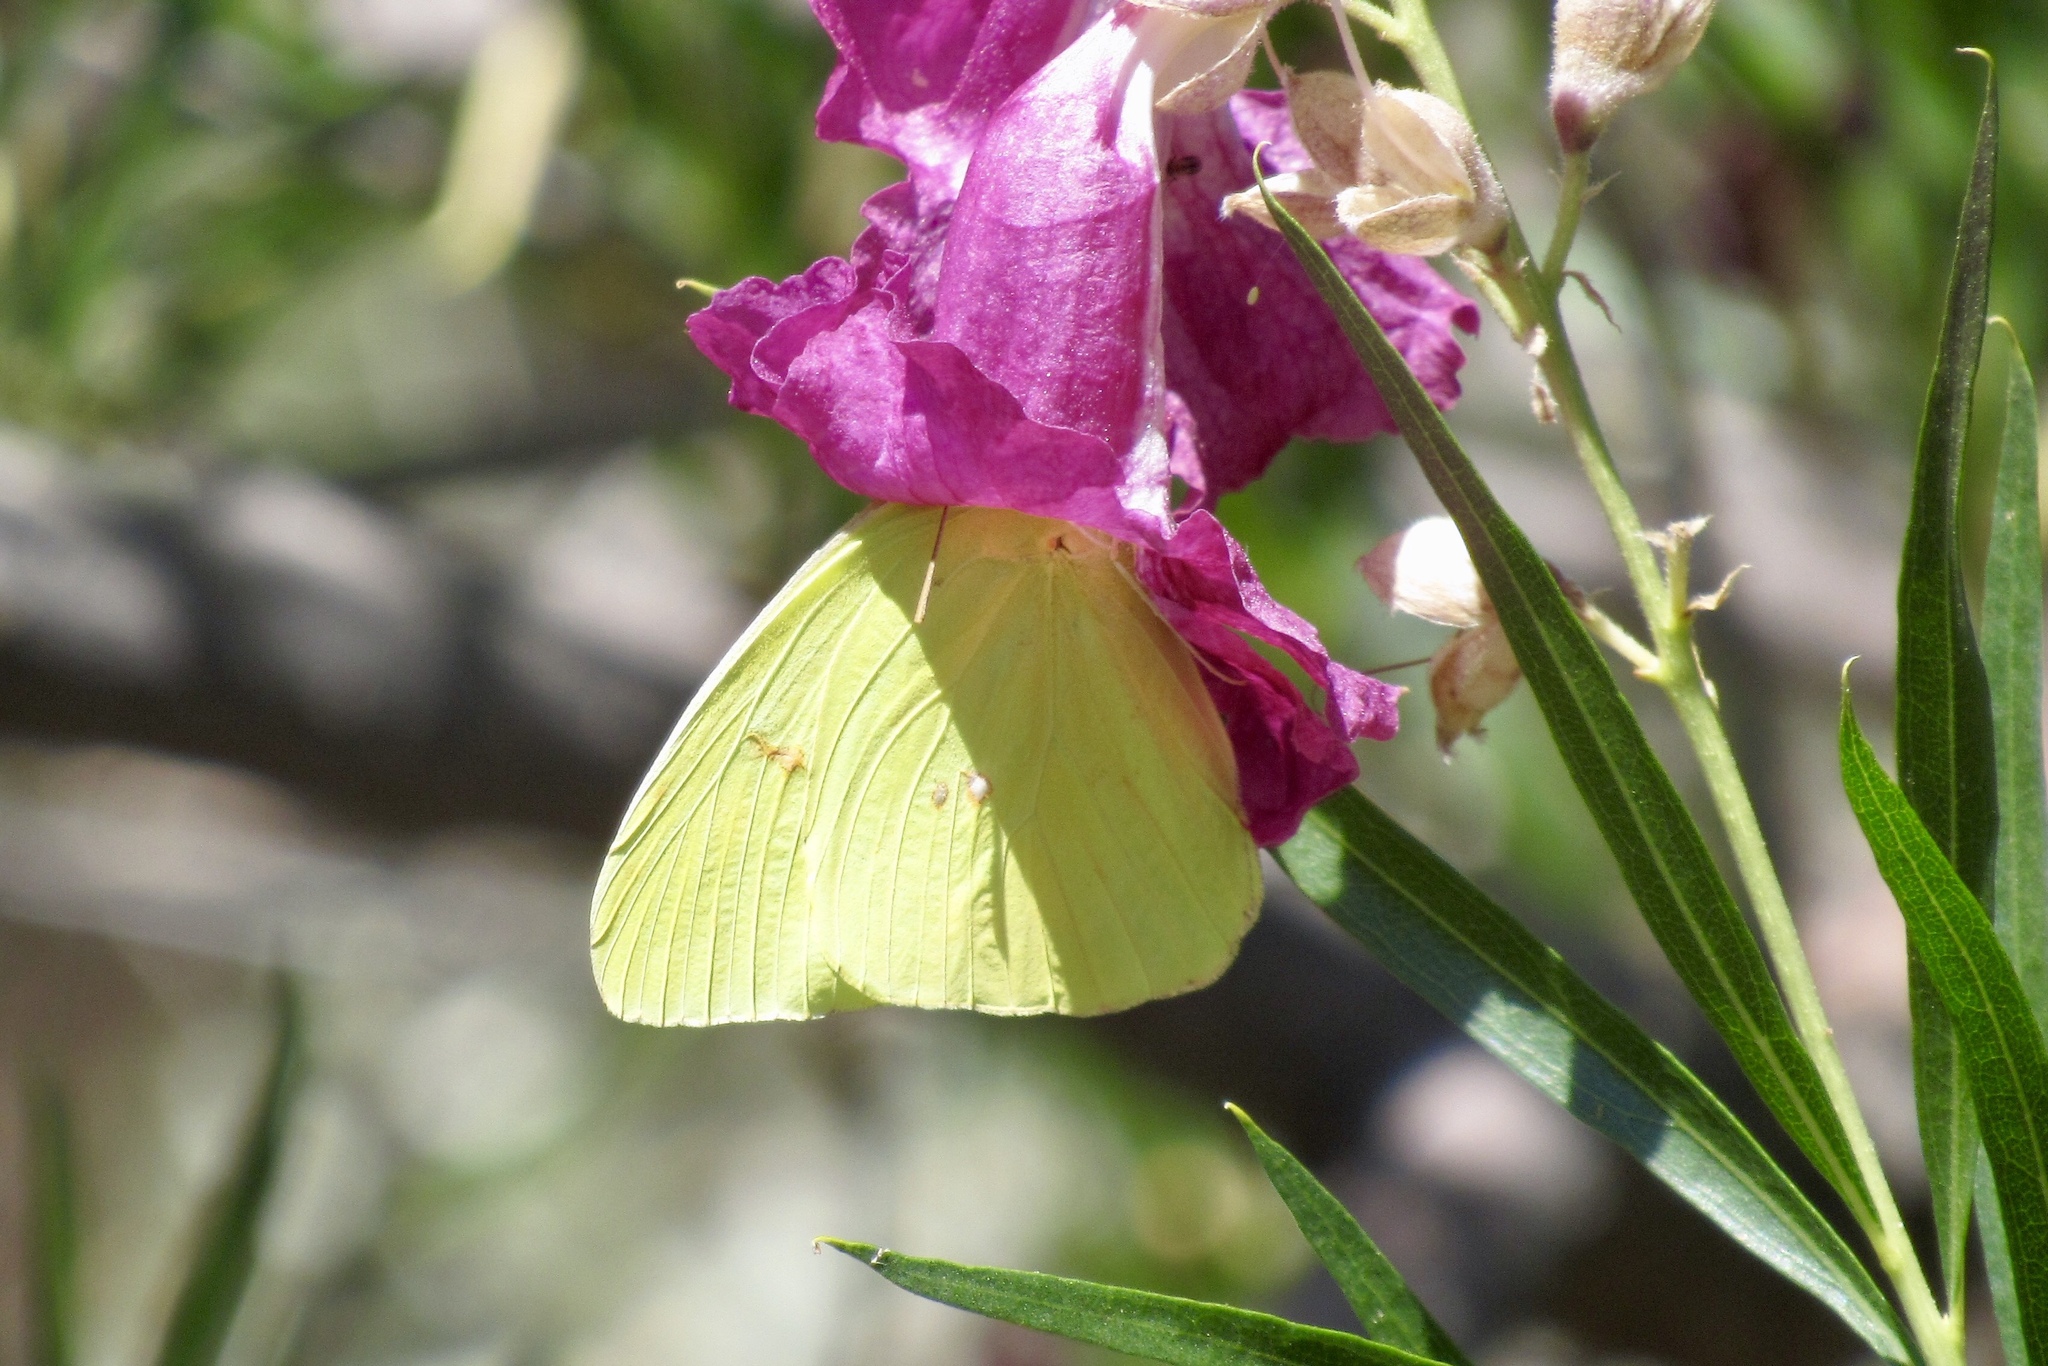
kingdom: Animalia
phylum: Arthropoda
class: Insecta
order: Lepidoptera
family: Pieridae
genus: Phoebis
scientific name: Phoebis sennae
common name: Cloudless sulphur
